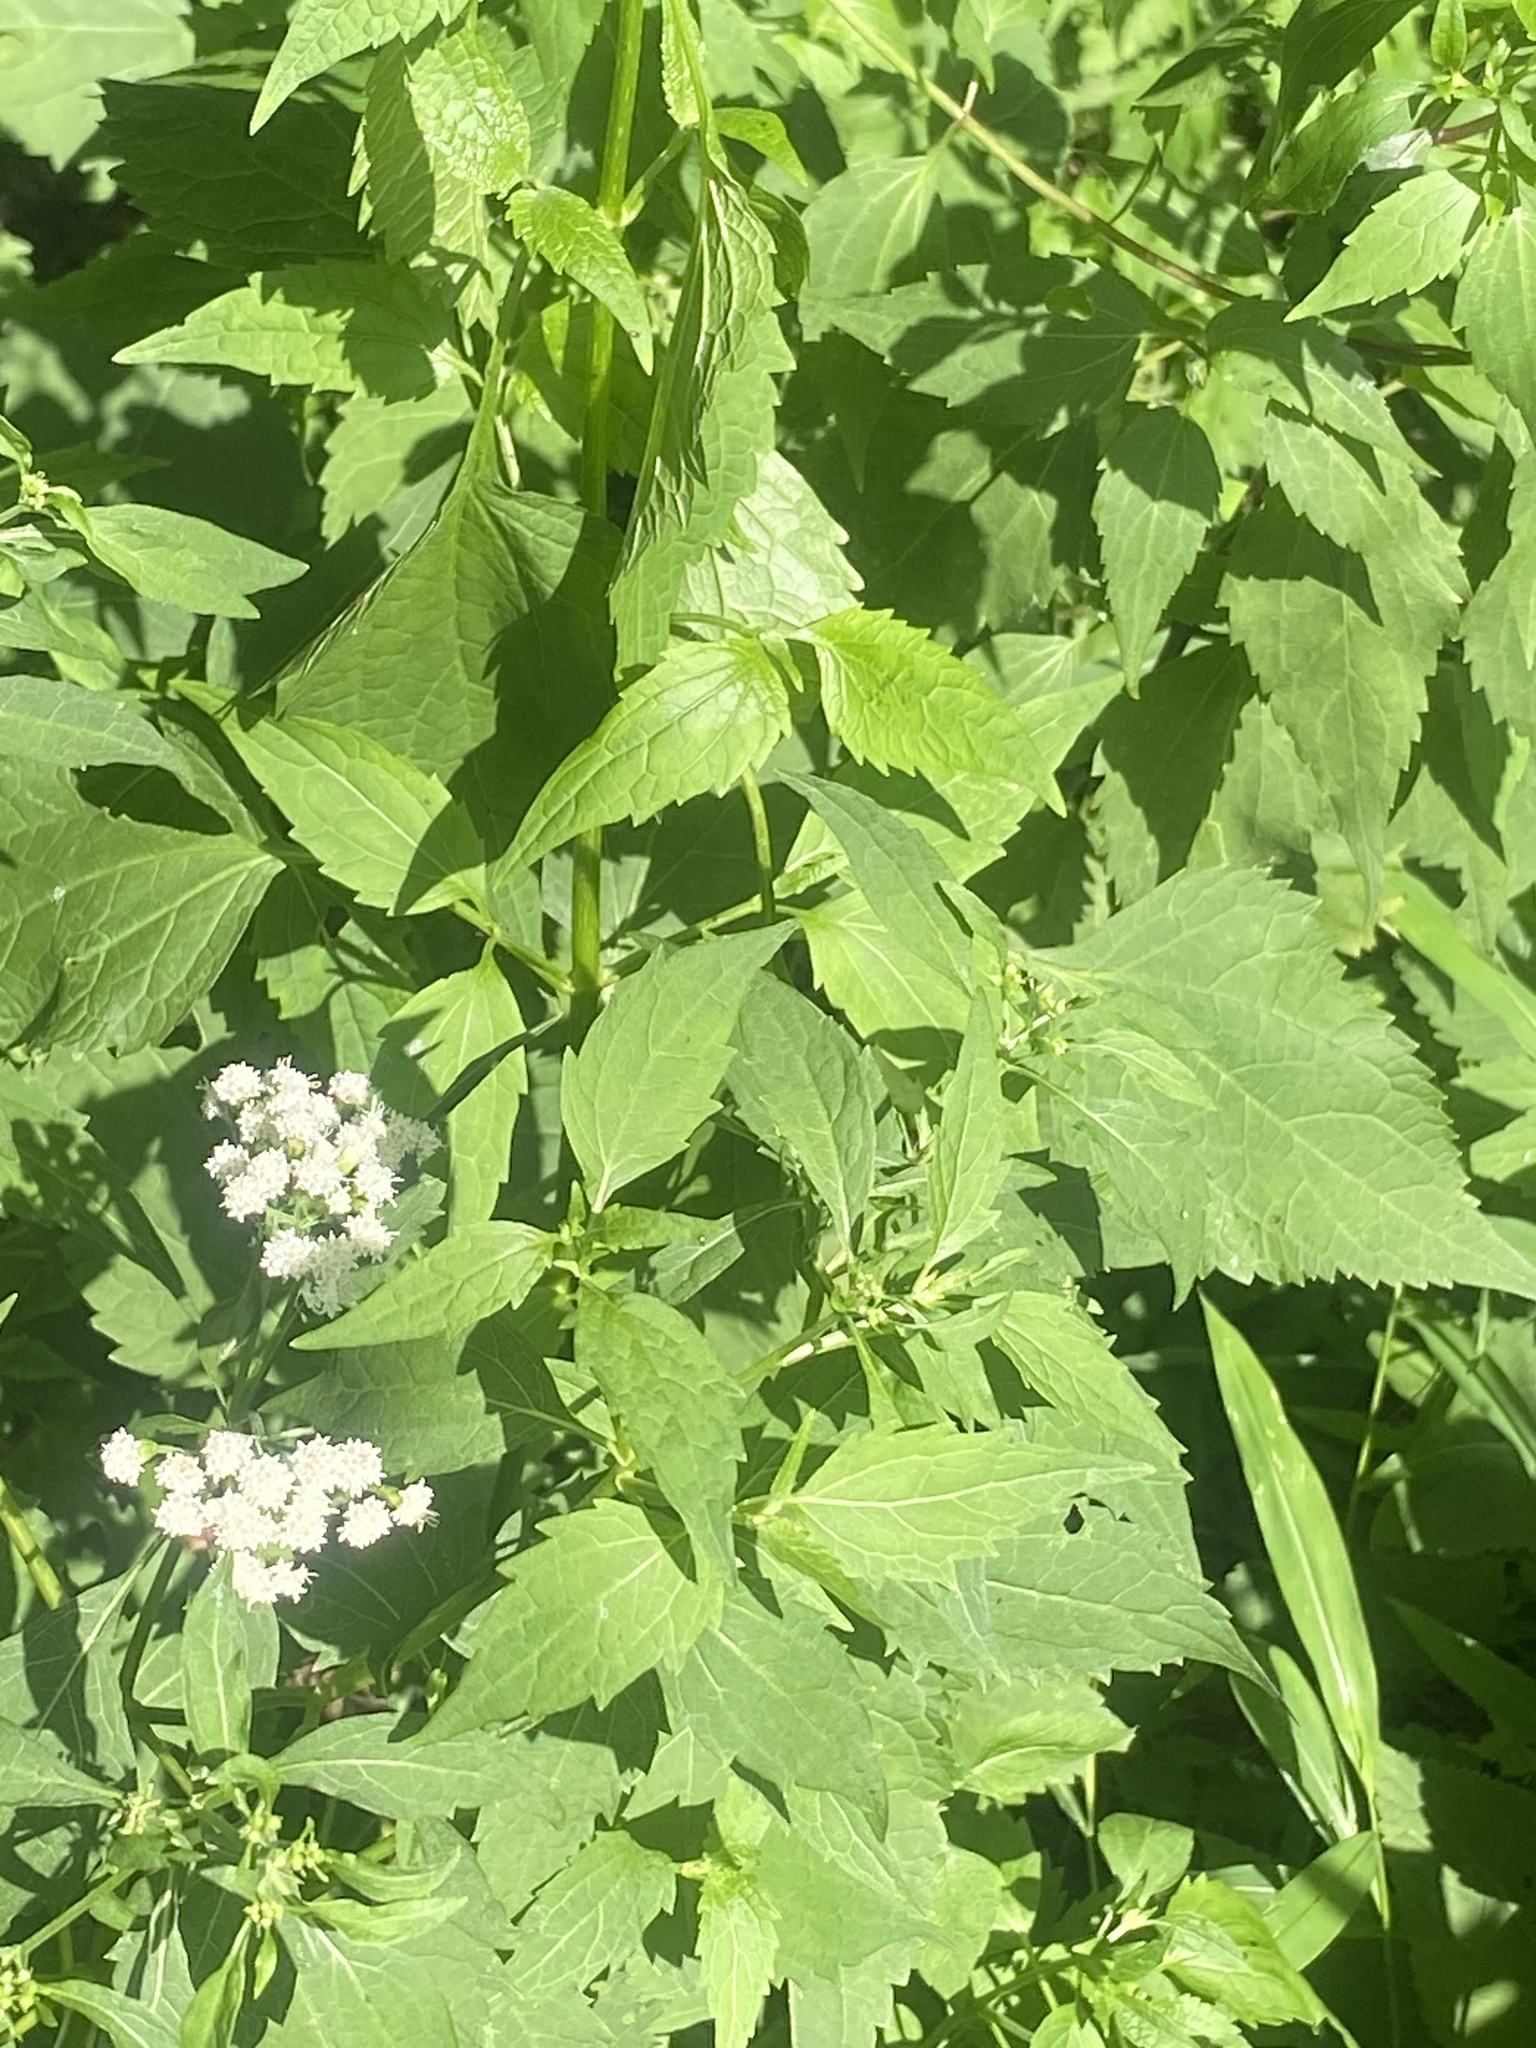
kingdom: Plantae
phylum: Tracheophyta
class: Magnoliopsida
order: Asterales
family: Asteraceae
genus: Ageratina
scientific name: Ageratina altissima
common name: White snakeroot
